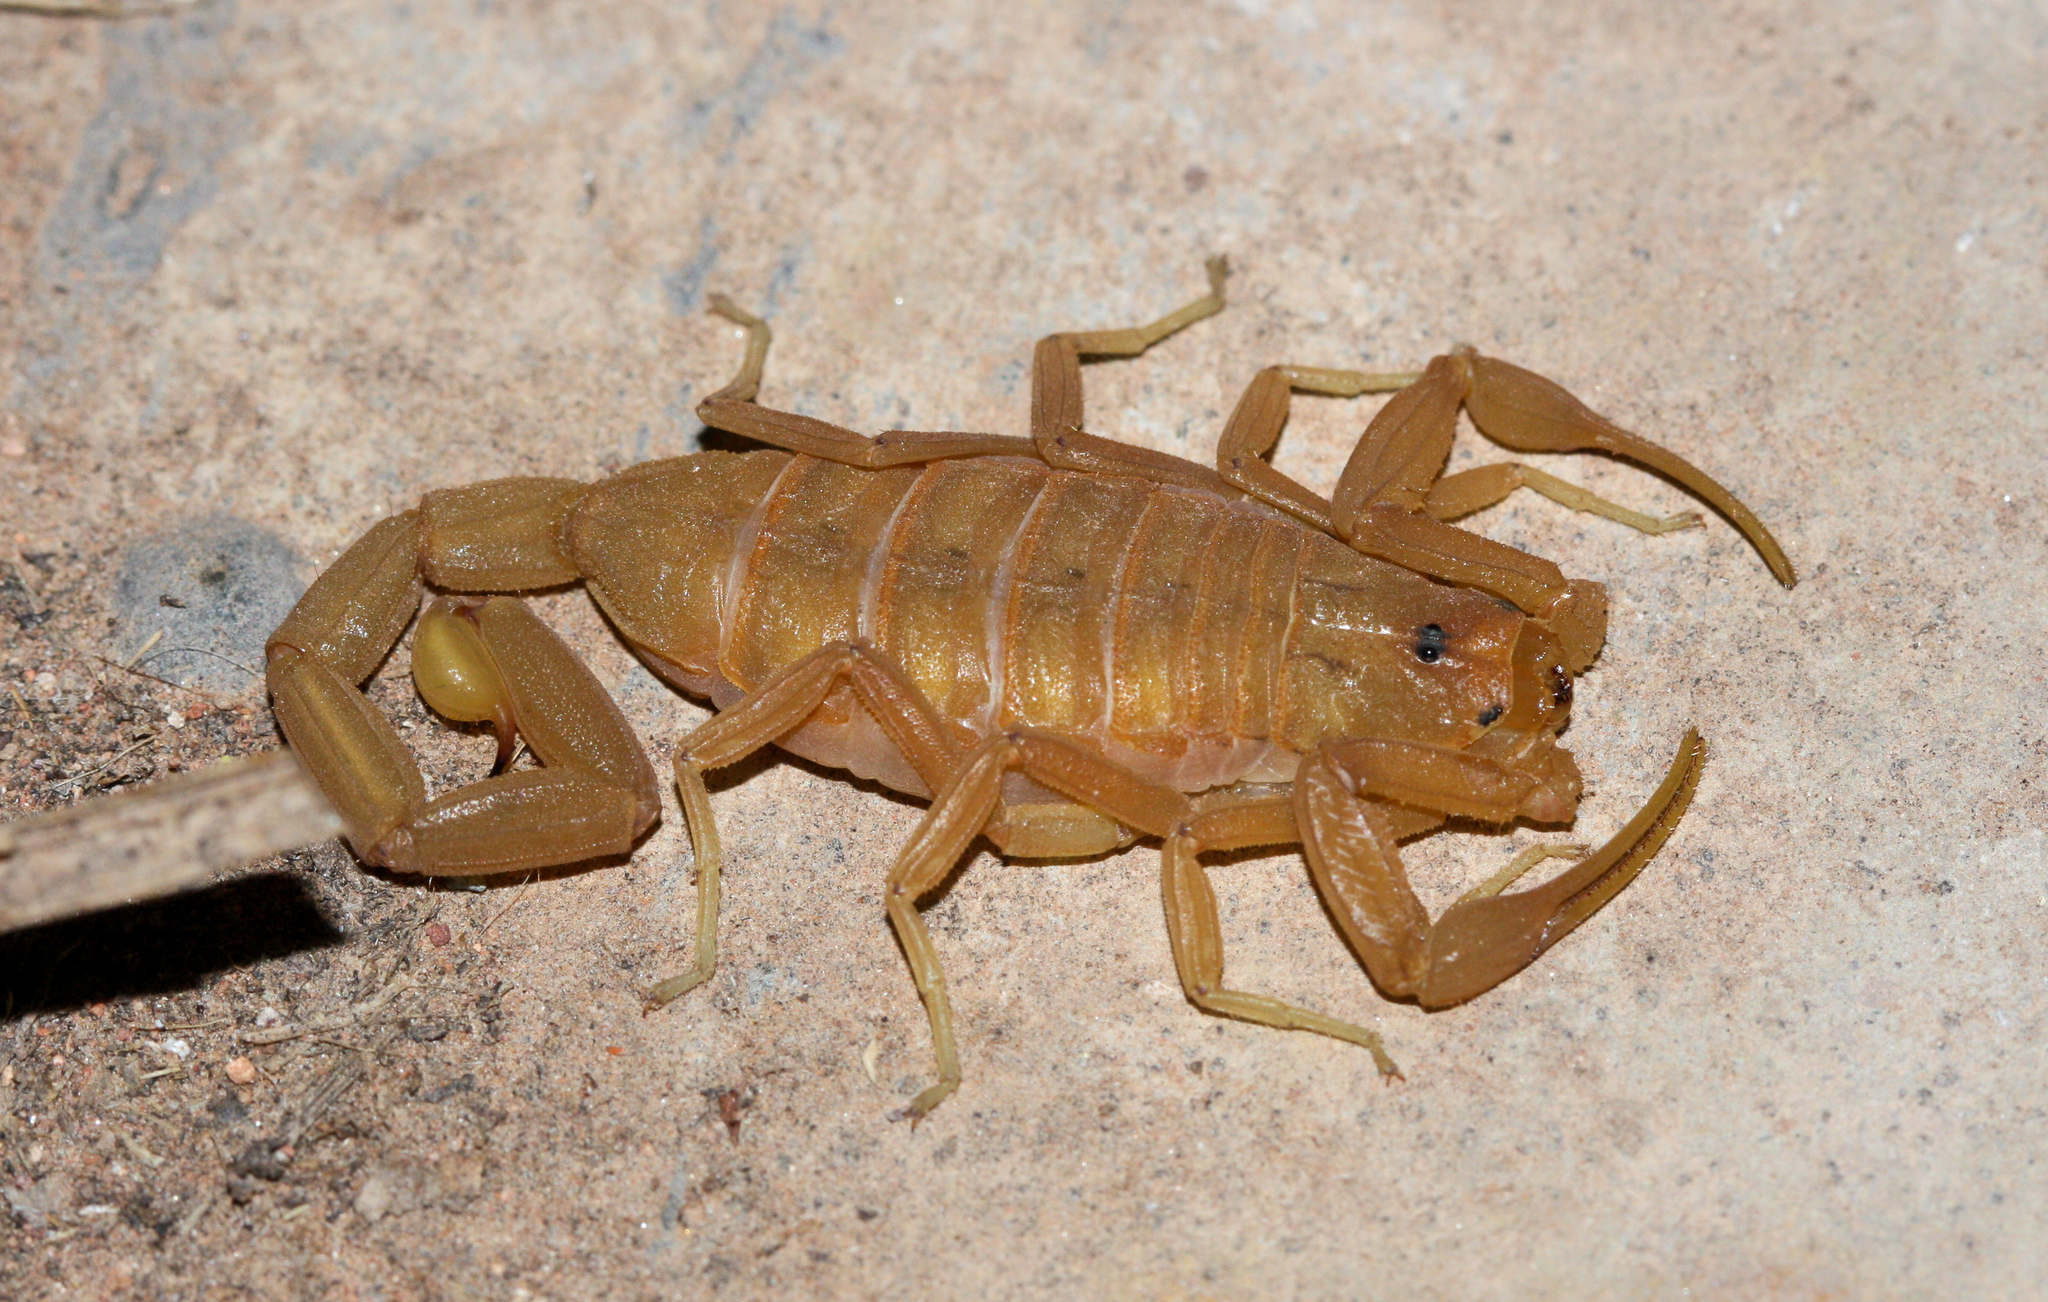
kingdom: Animalia
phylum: Arthropoda
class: Arachnida
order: Scorpiones
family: Buthidae
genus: Centruroides
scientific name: Centruroides sculpturatus
